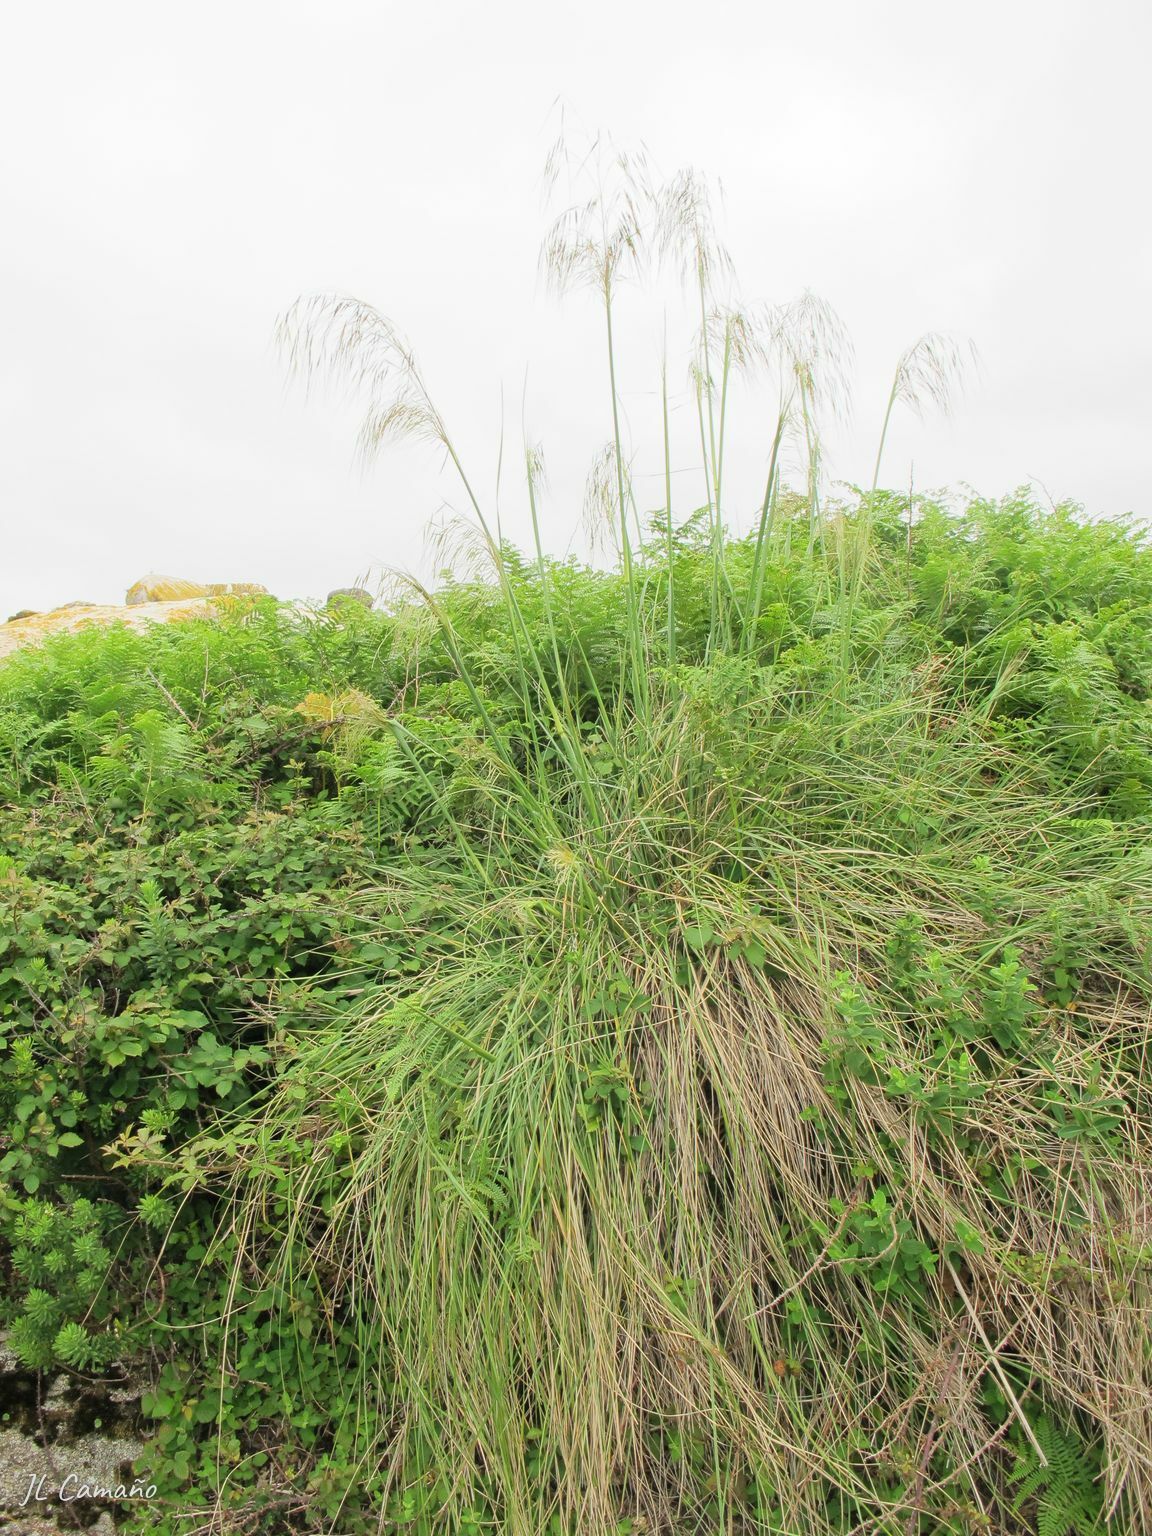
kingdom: Plantae
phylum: Tracheophyta
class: Liliopsida
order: Poales
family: Poaceae
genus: Celtica
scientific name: Celtica gigantea
